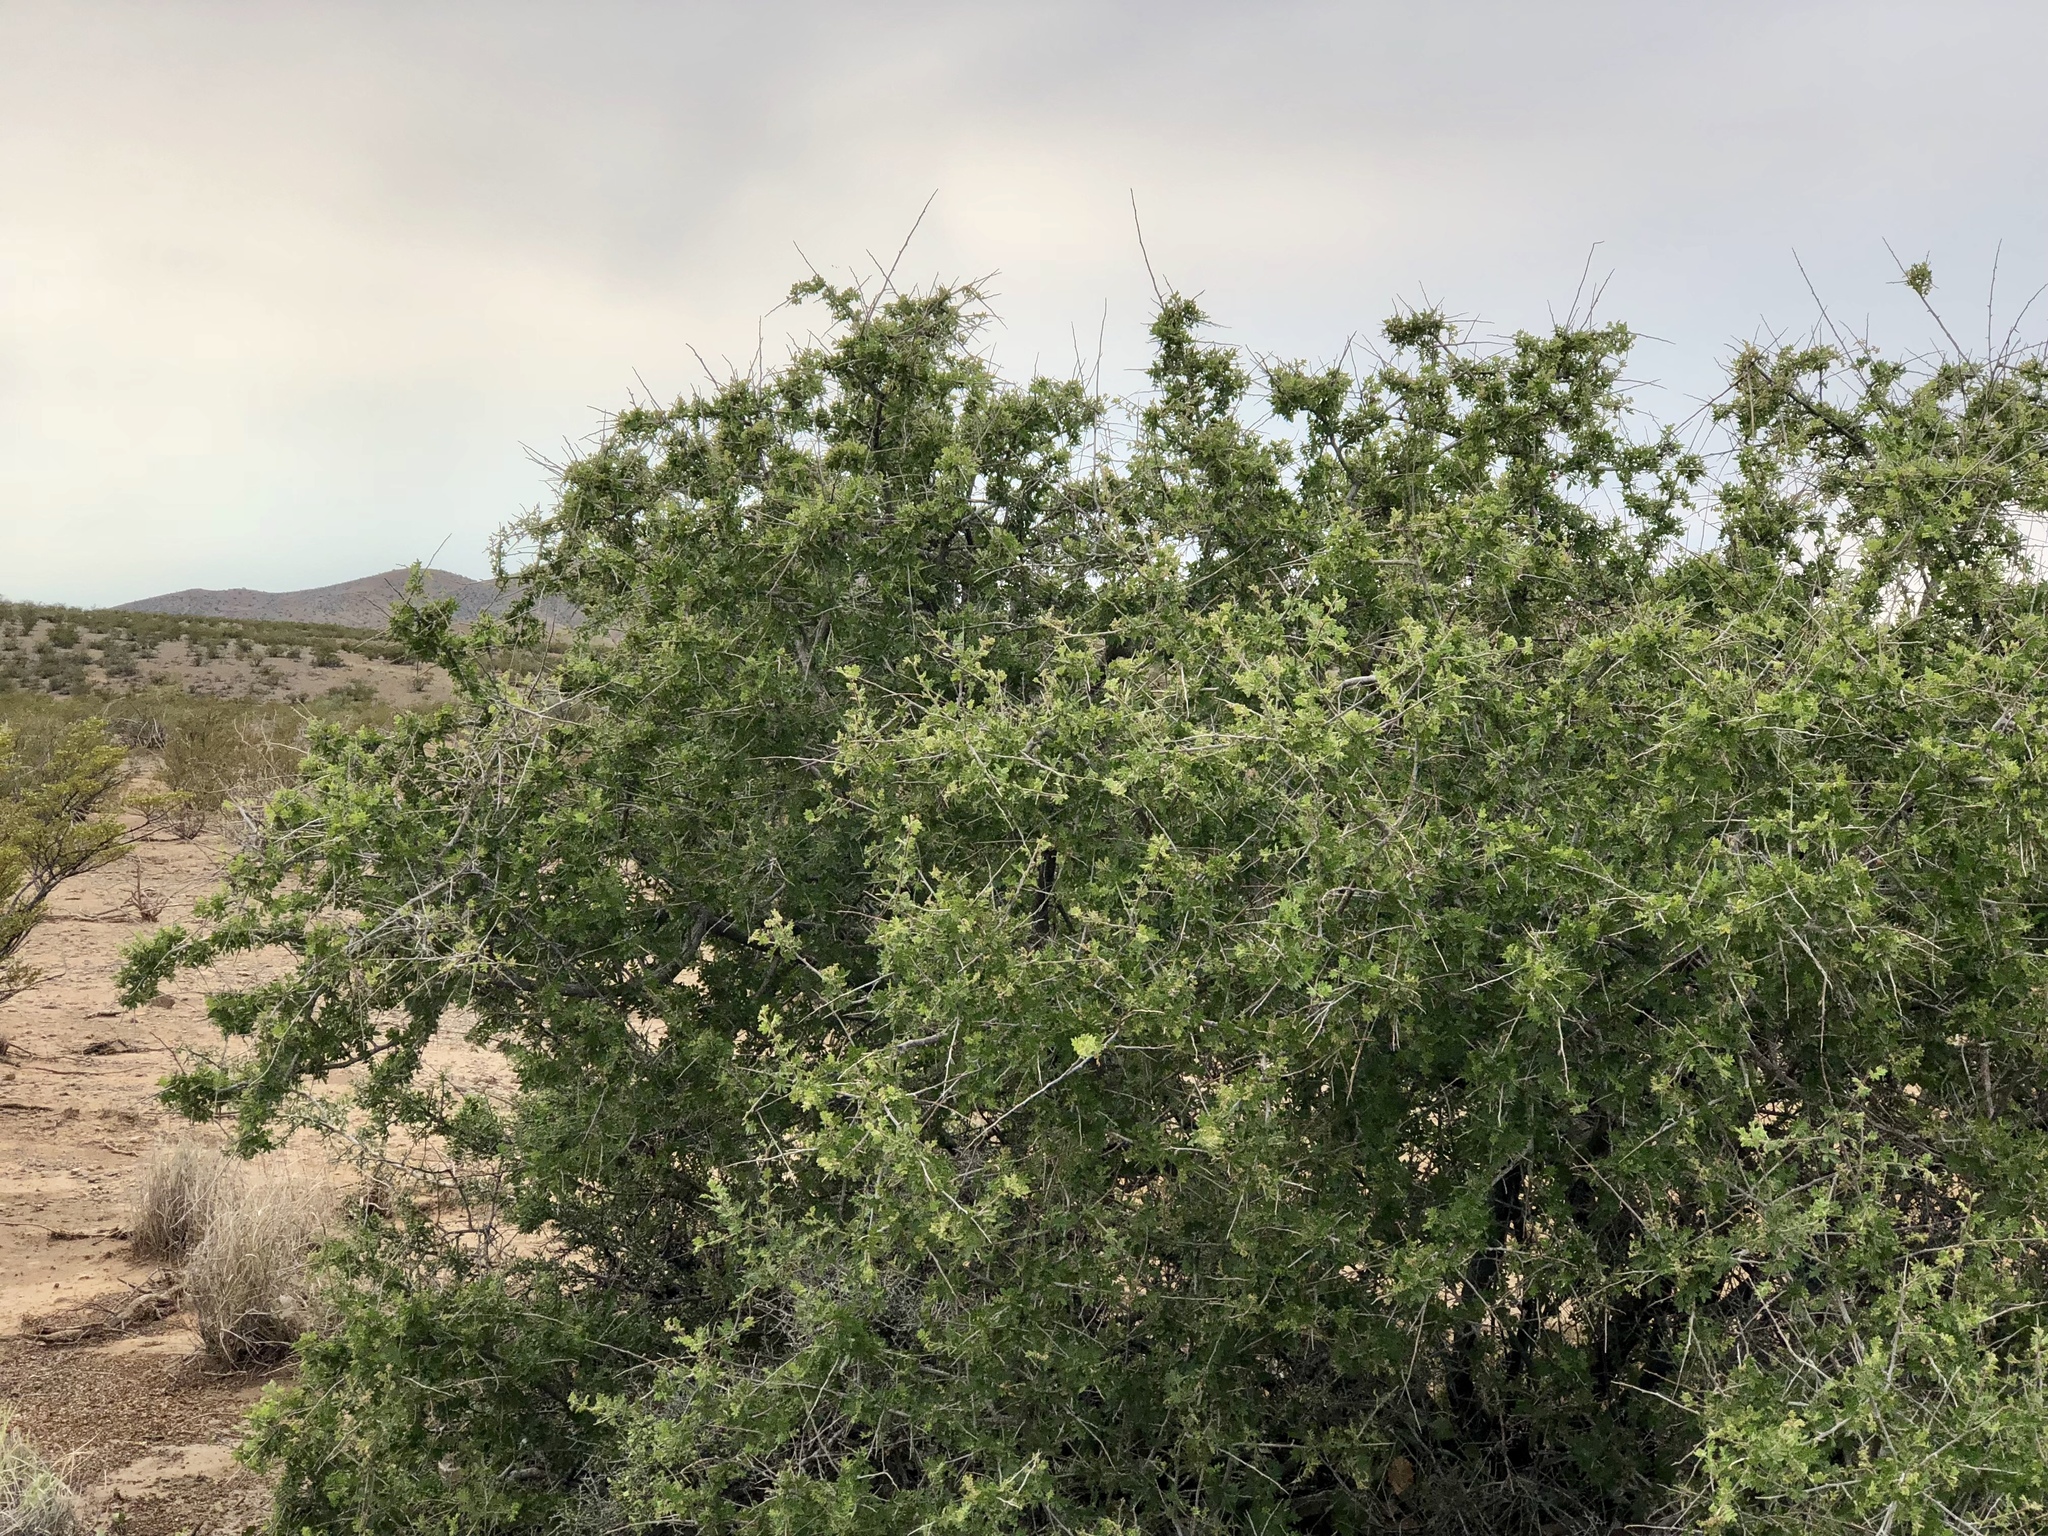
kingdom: Plantae
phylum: Tracheophyta
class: Magnoliopsida
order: Sapindales
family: Anacardiaceae
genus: Rhus
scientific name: Rhus microphylla
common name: Desert sumac
